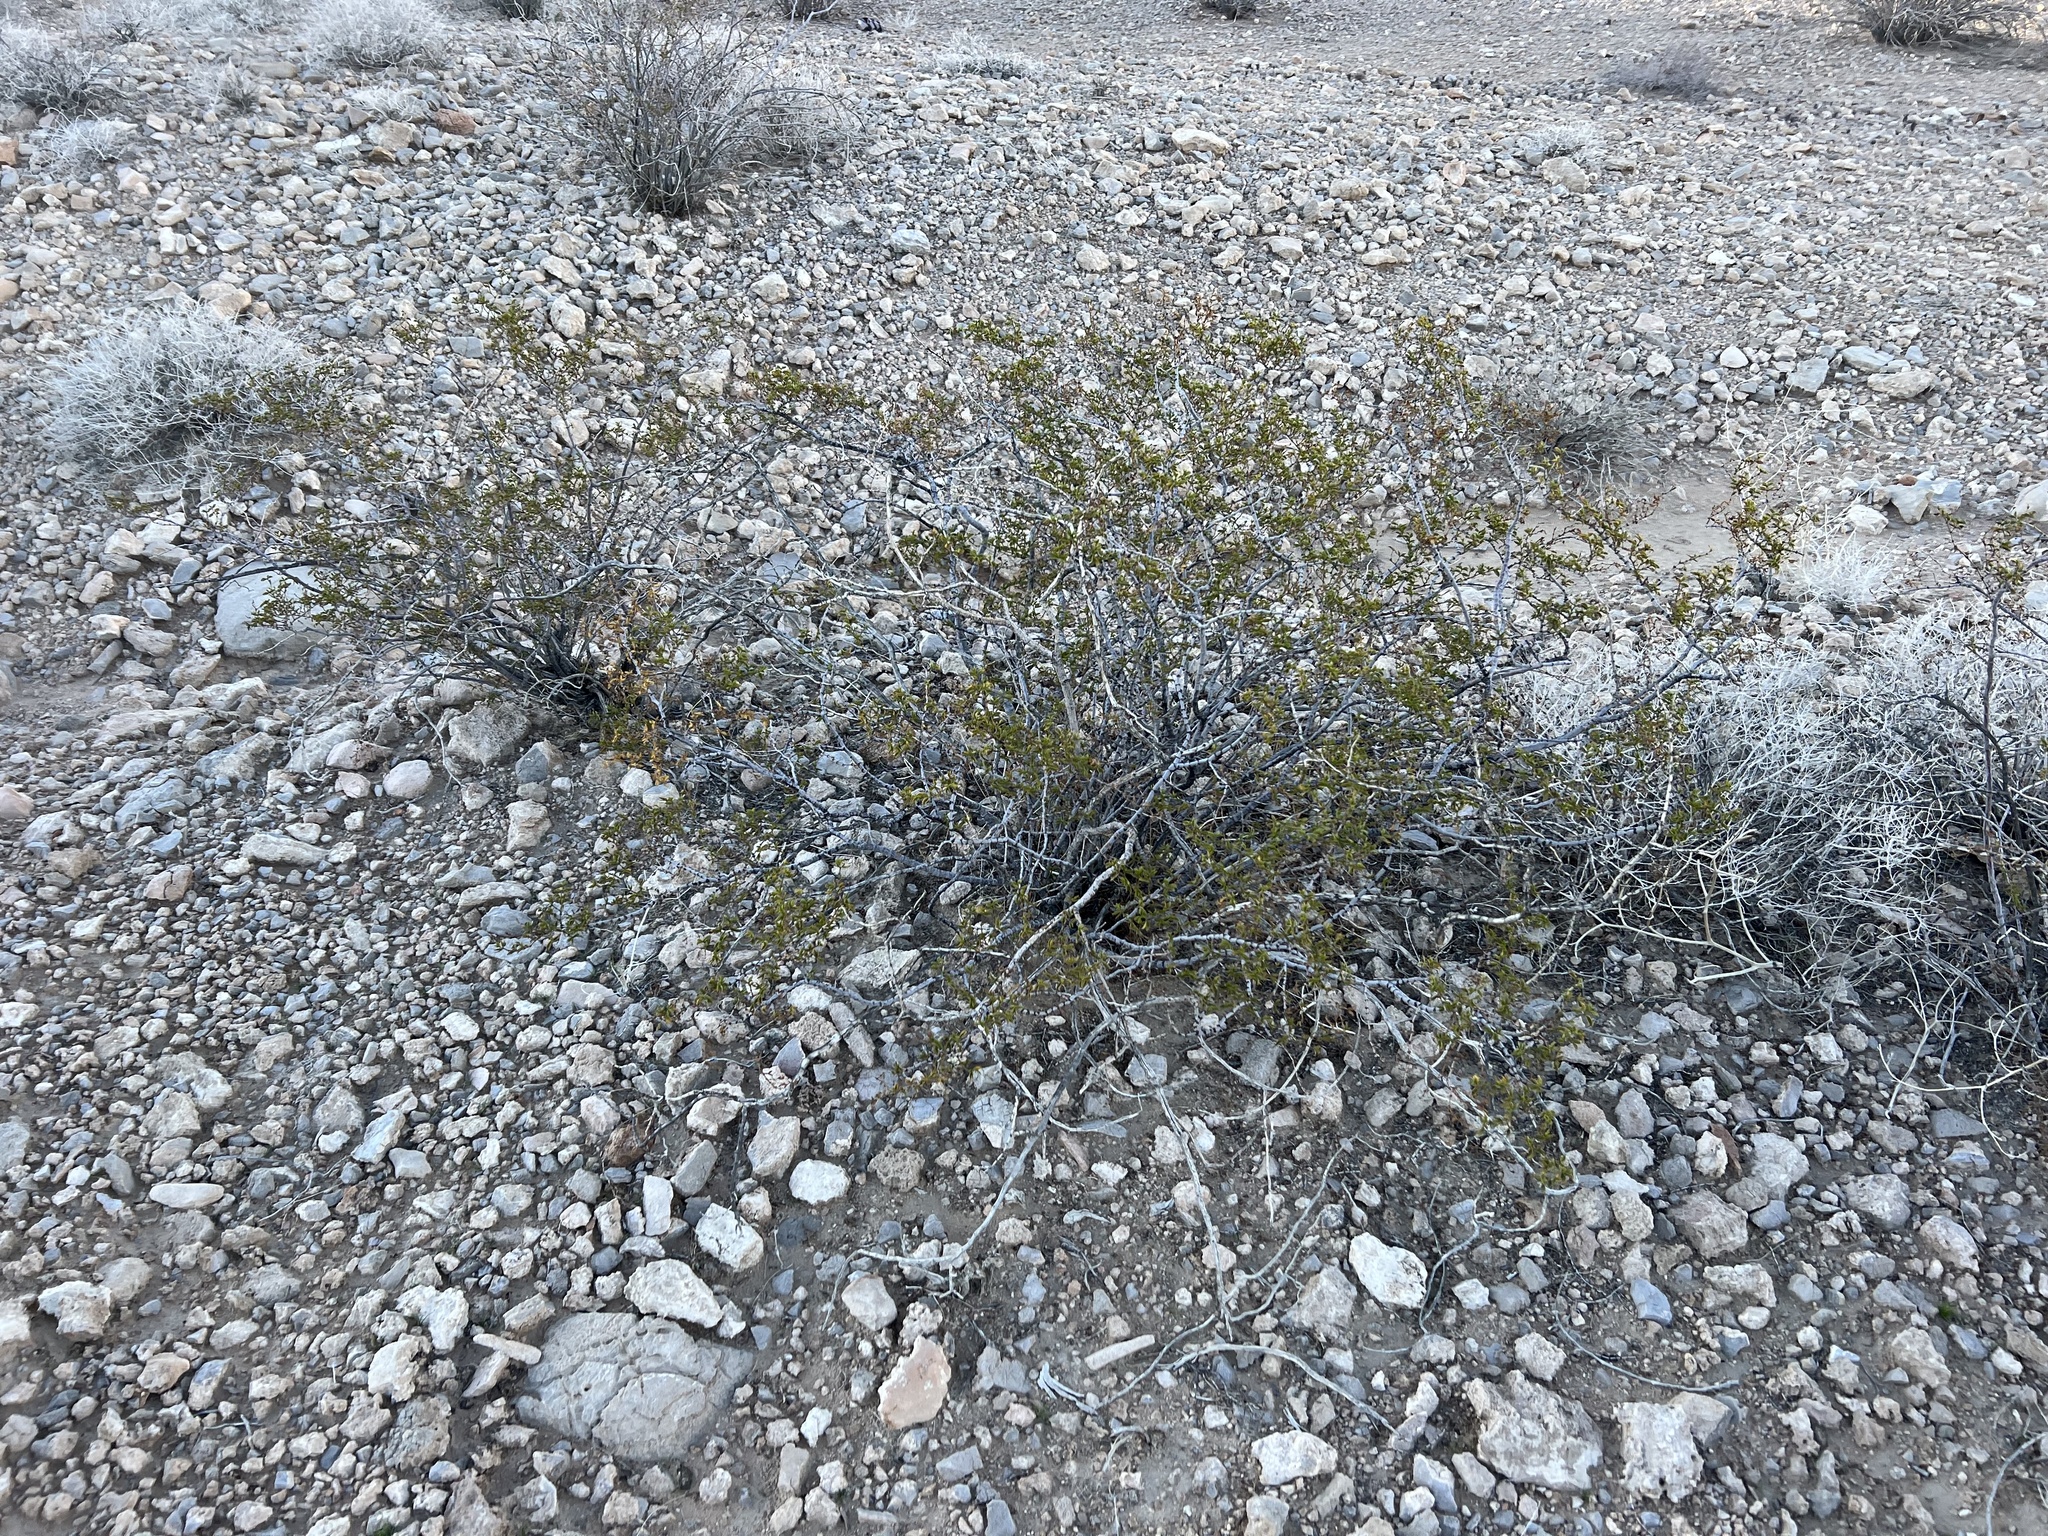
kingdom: Plantae
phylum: Tracheophyta
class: Magnoliopsida
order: Zygophyllales
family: Zygophyllaceae
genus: Larrea
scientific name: Larrea tridentata
